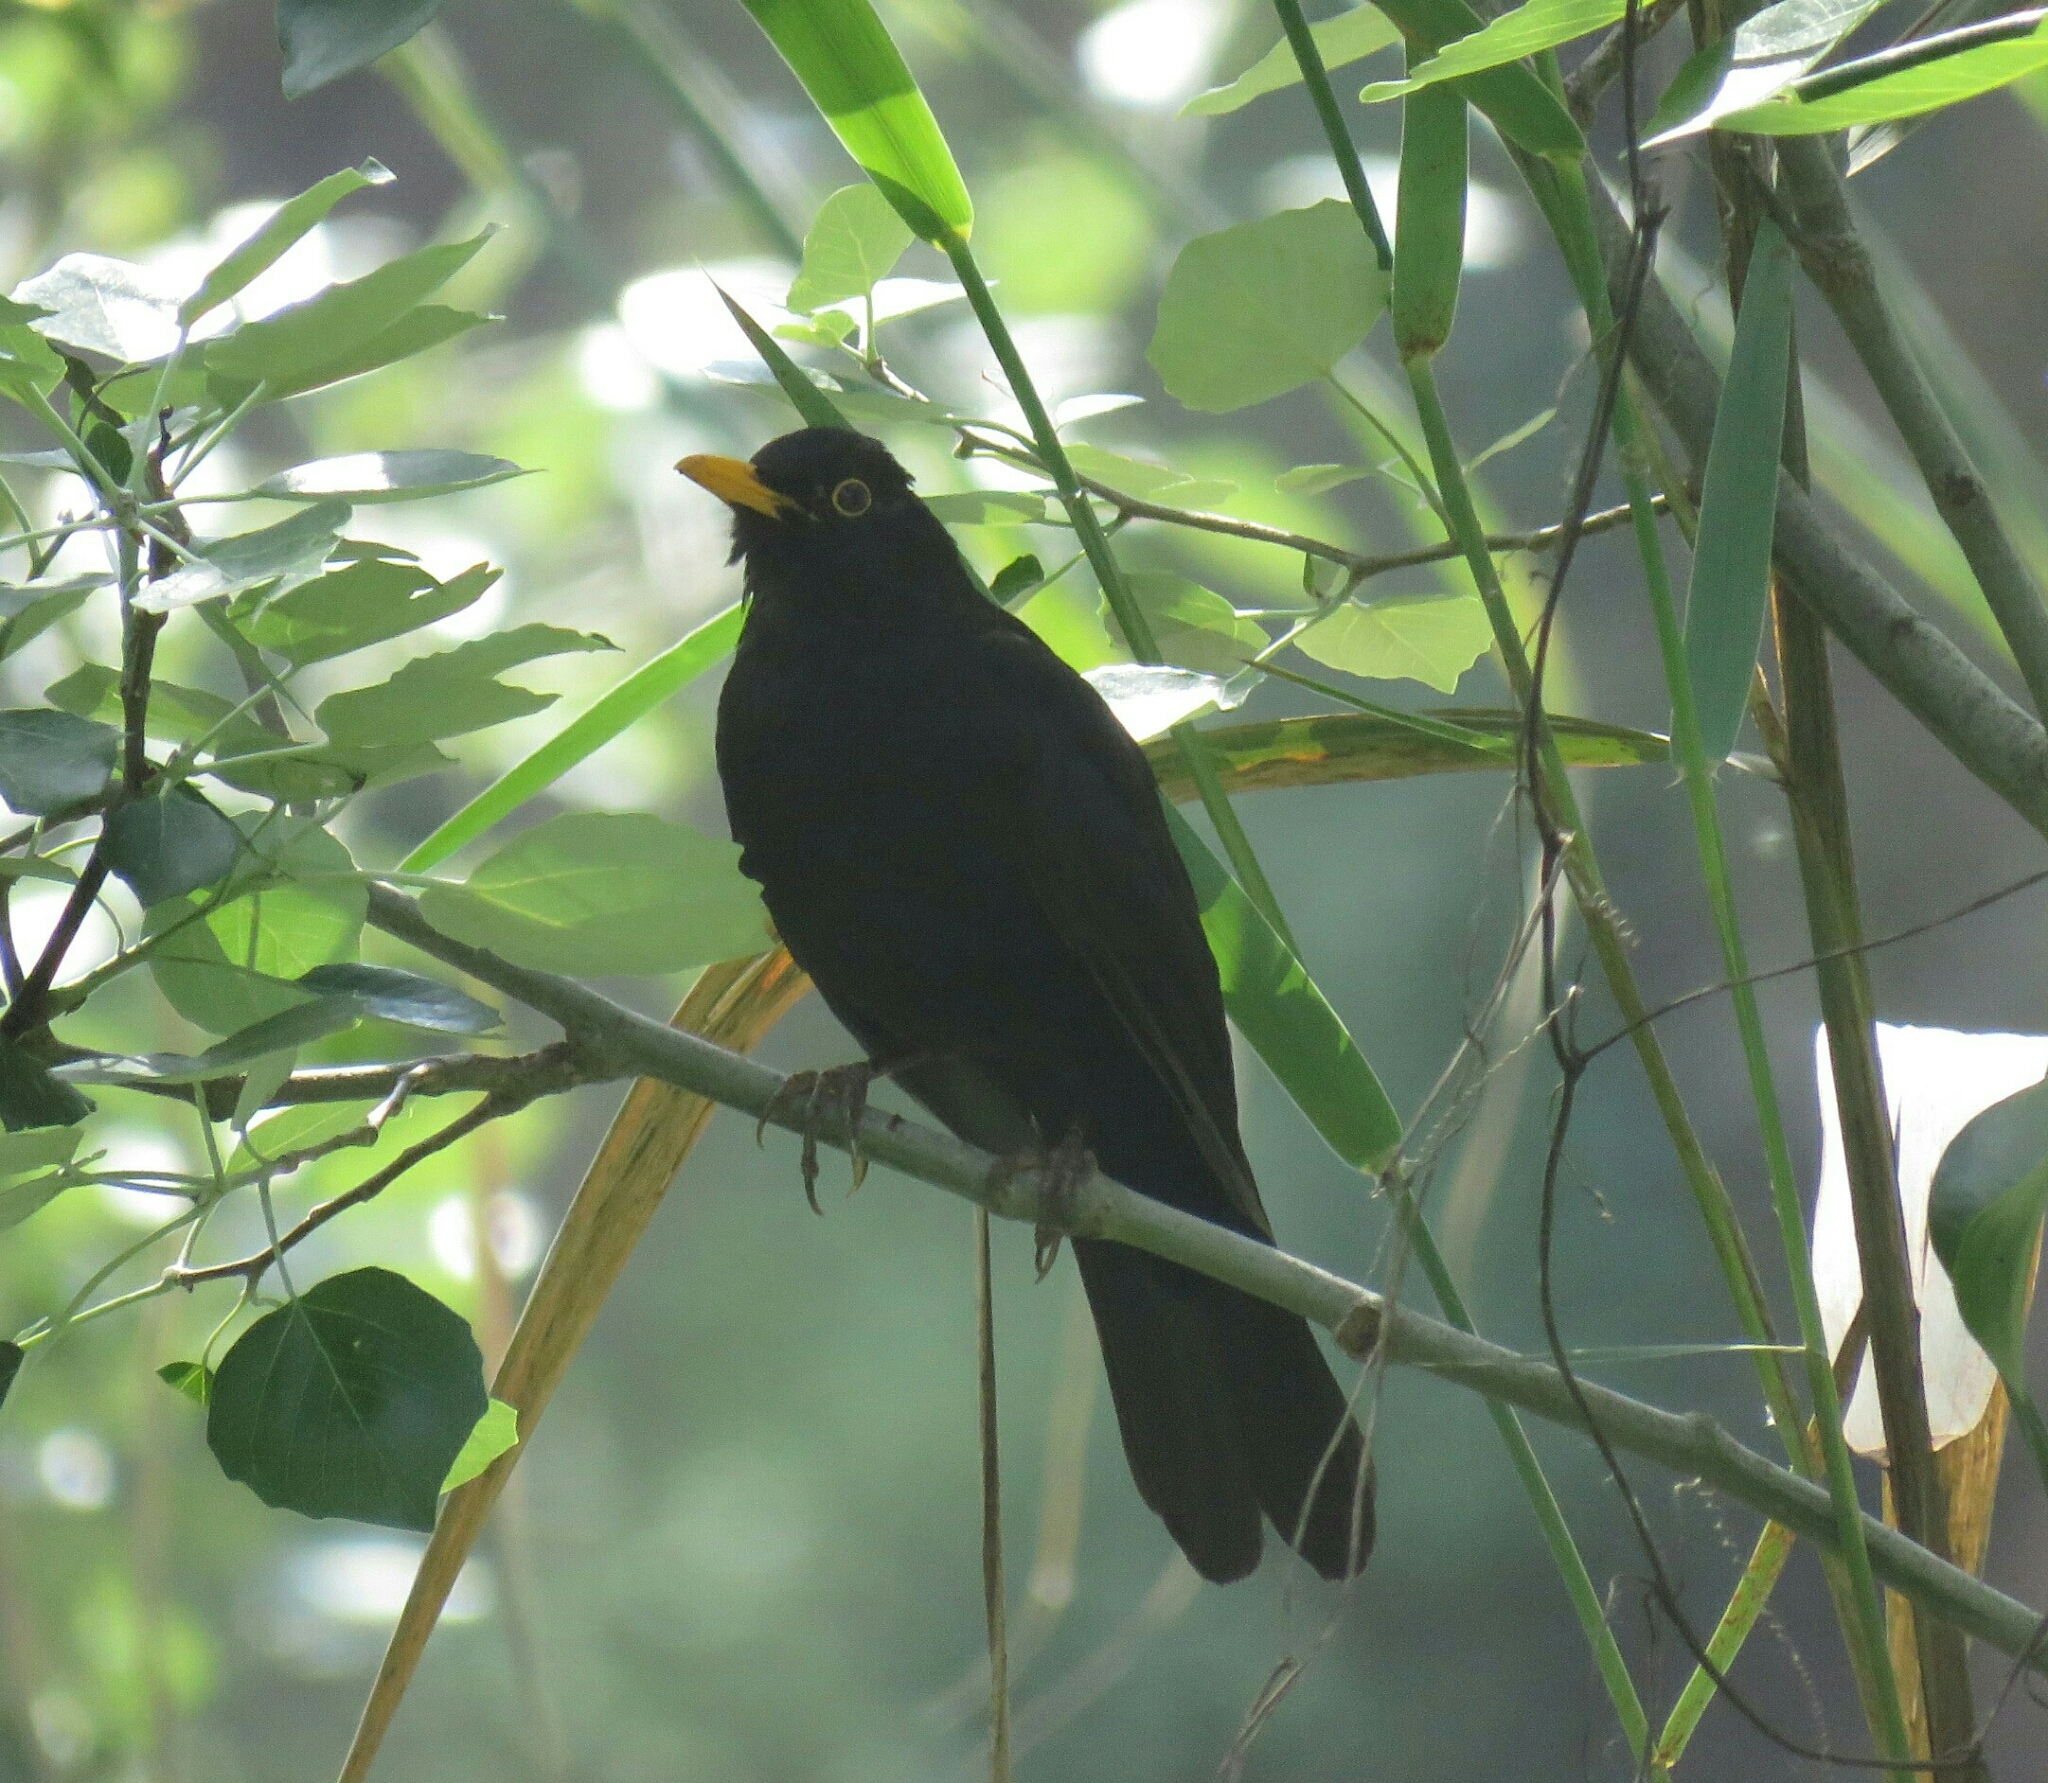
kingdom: Animalia
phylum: Chordata
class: Aves
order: Passeriformes
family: Turdidae
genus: Turdus
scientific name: Turdus merula
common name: Common blackbird
